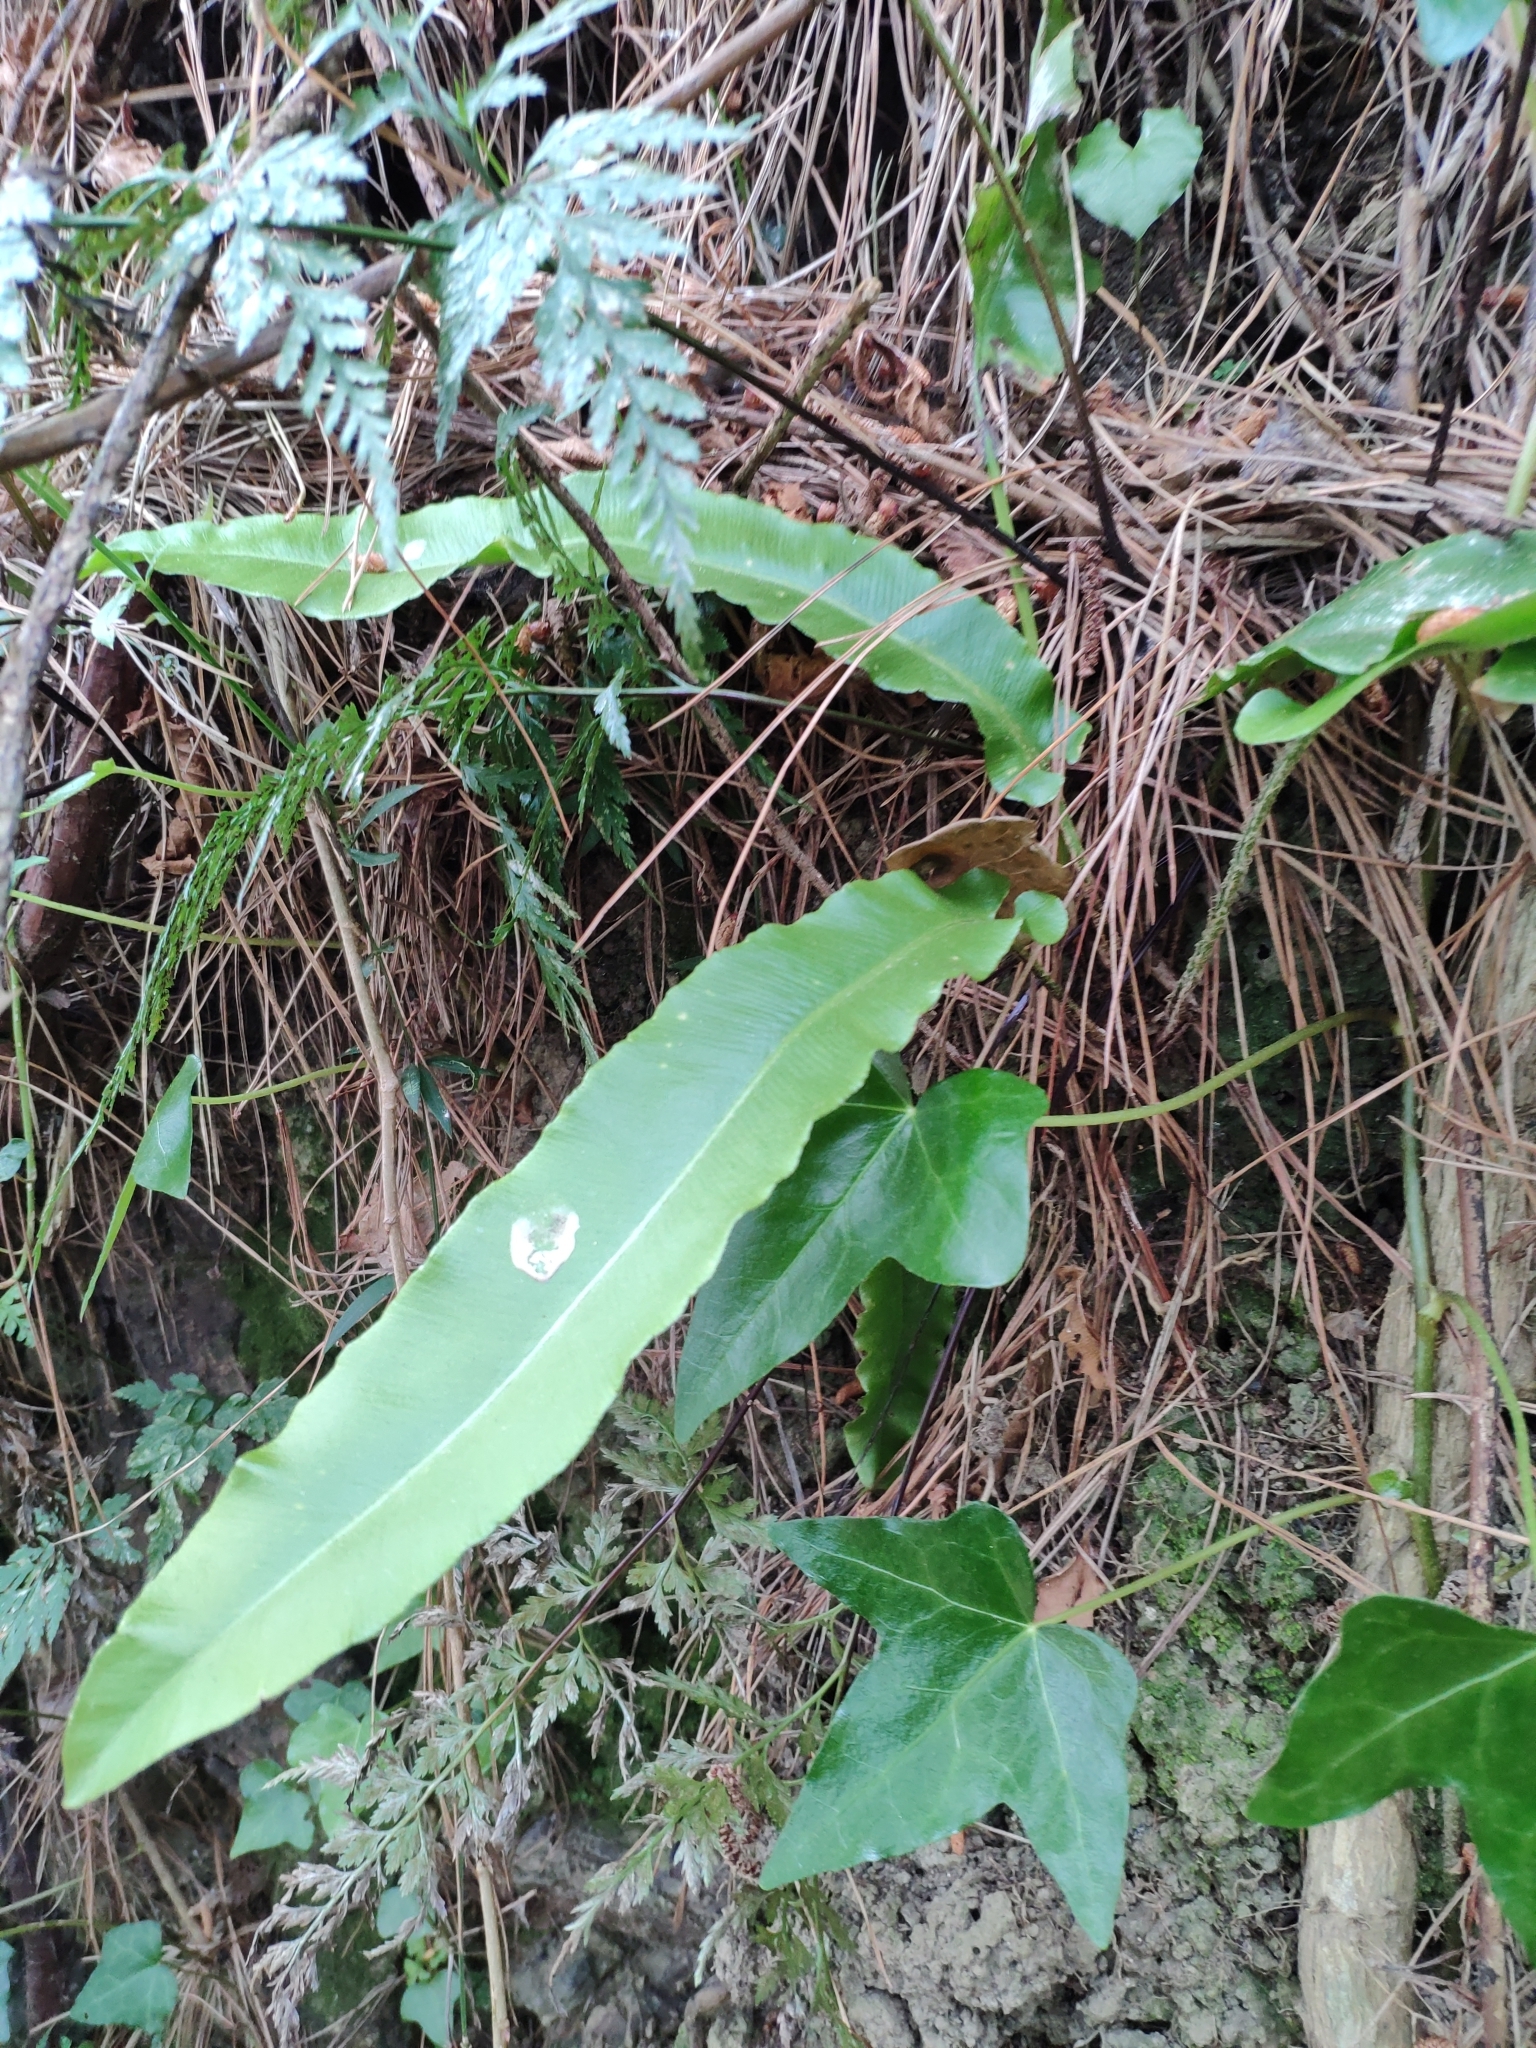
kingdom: Plantae
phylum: Tracheophyta
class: Polypodiopsida
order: Polypodiales
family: Aspleniaceae
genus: Asplenium
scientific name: Asplenium scolopendrium
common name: Hart's-tongue fern
